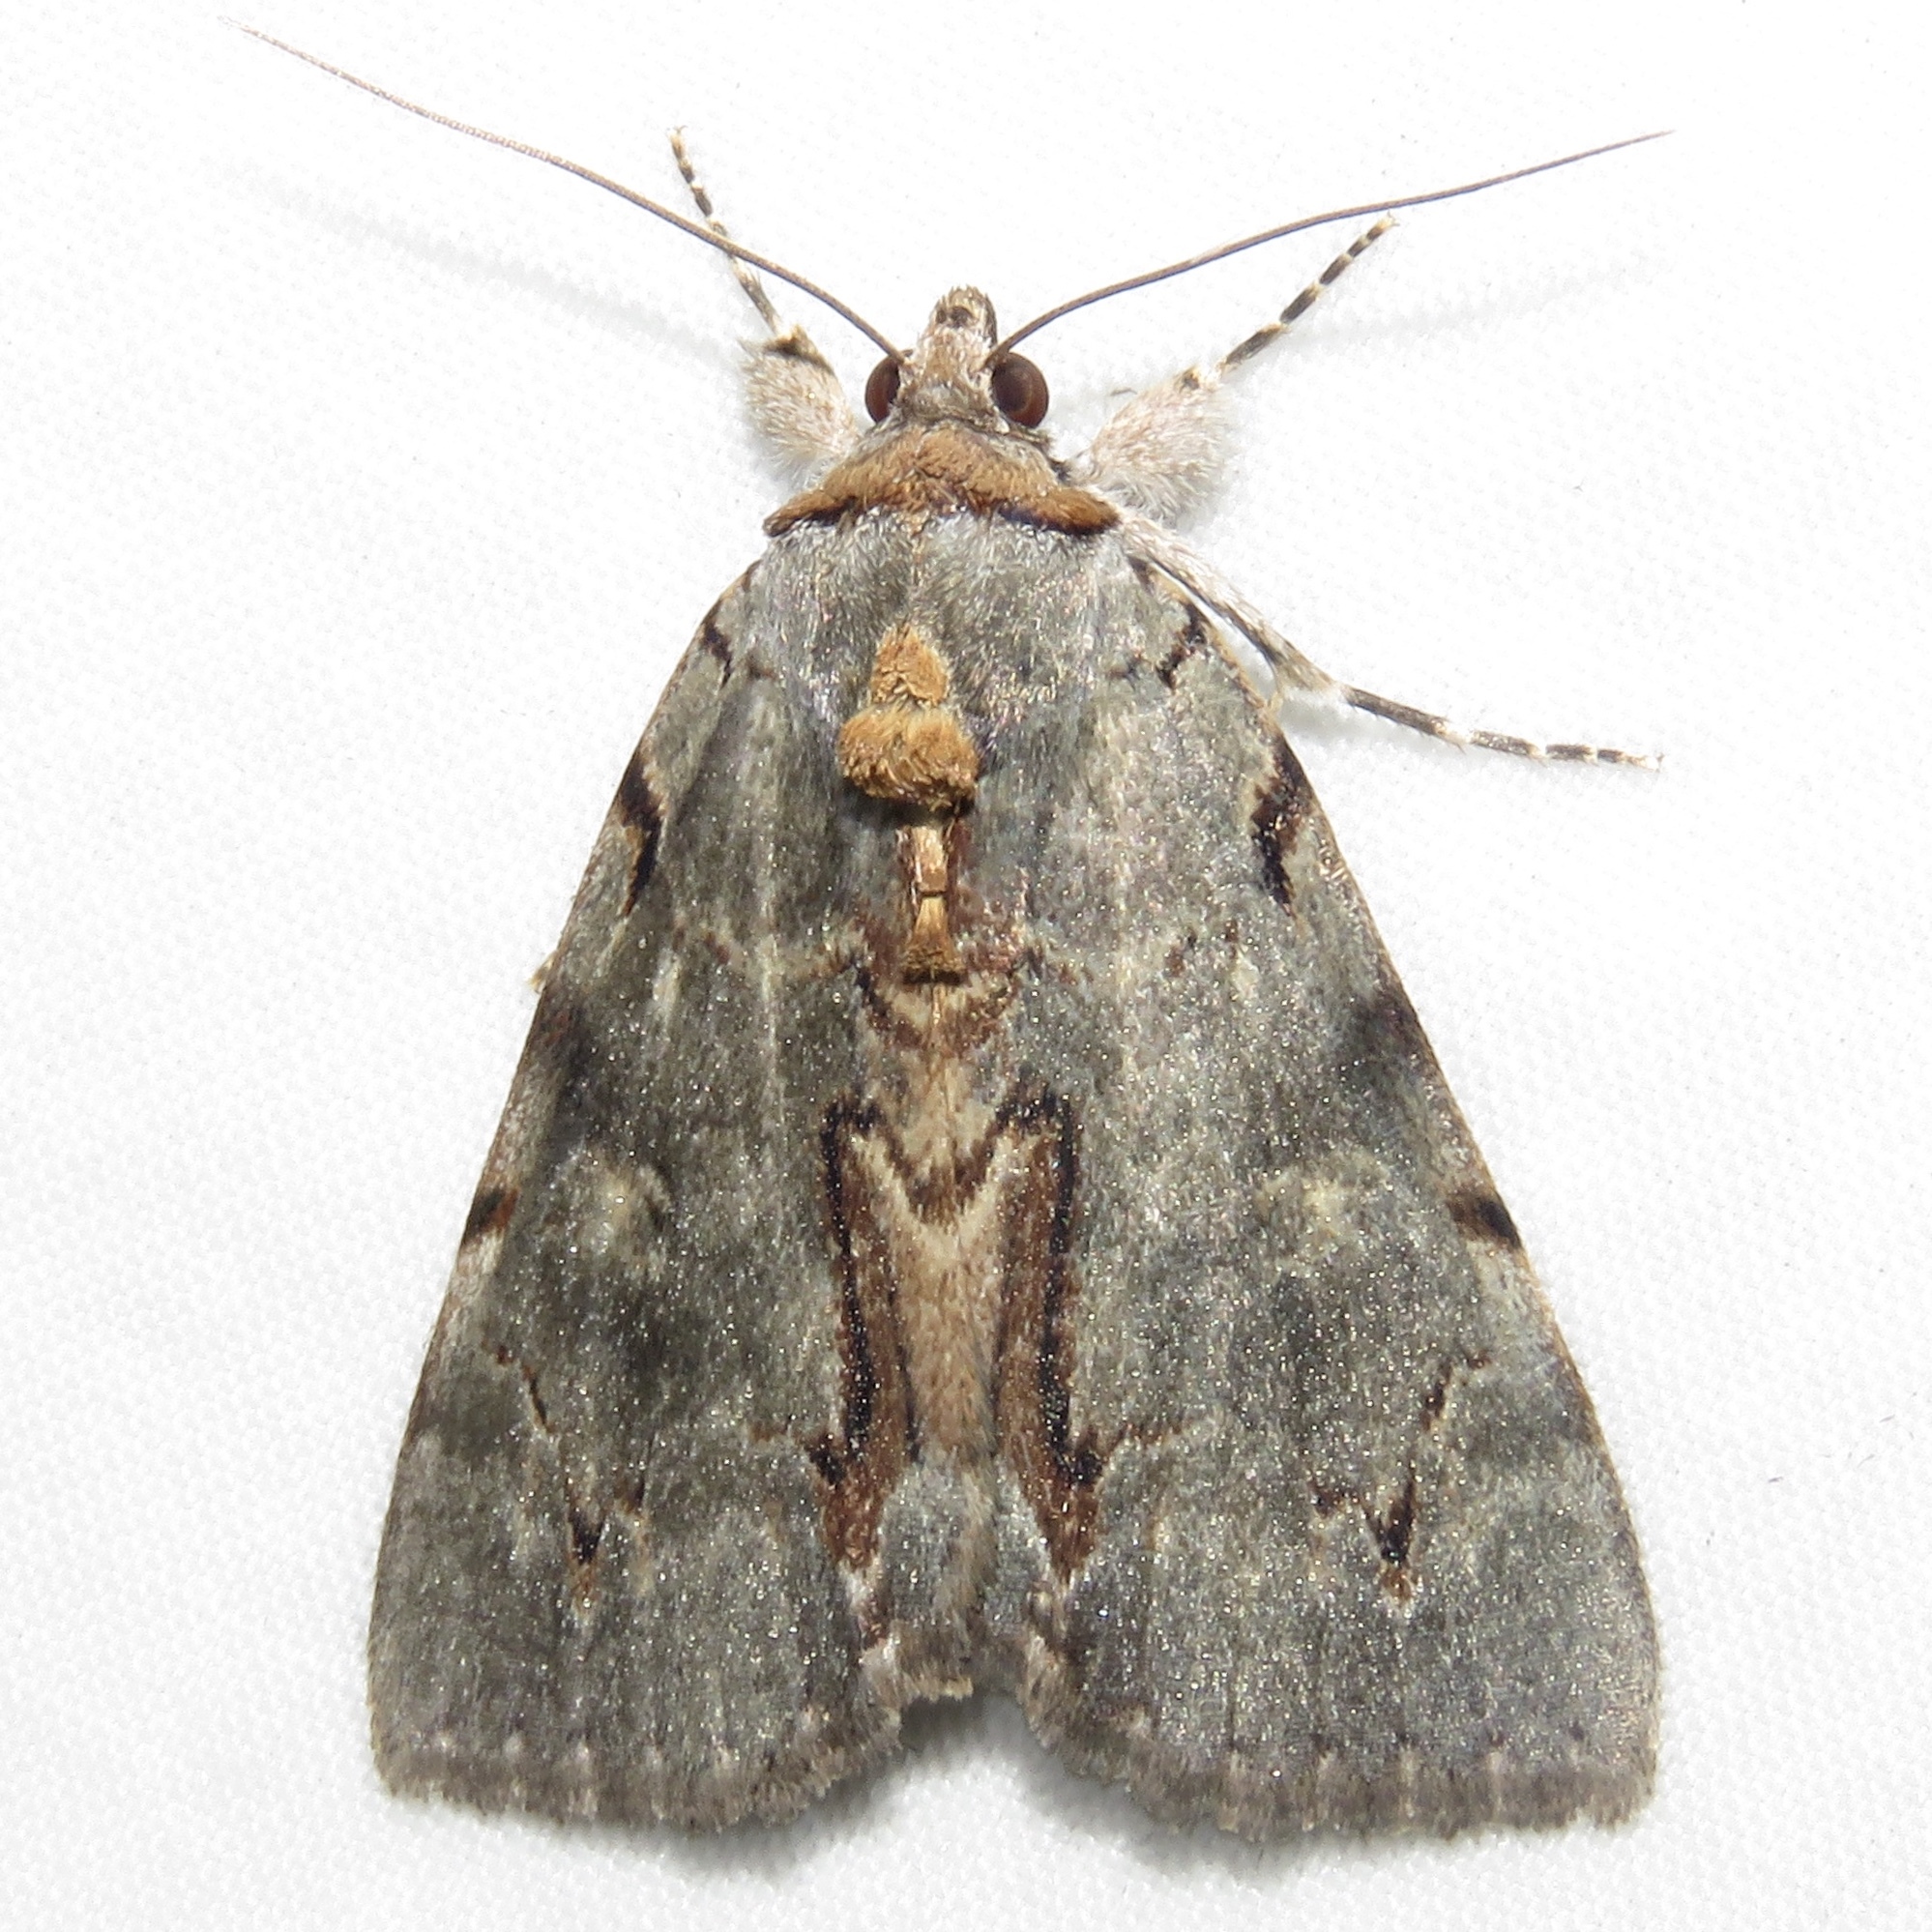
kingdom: Animalia
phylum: Arthropoda
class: Insecta
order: Lepidoptera
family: Erebidae
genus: Catocala
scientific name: Catocala grynea
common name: Woody underwing
